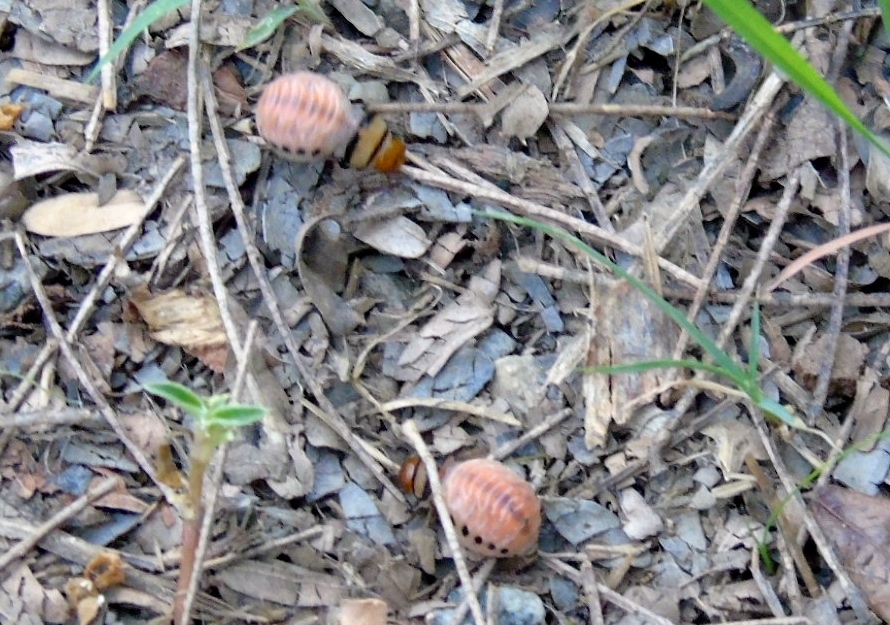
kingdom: Animalia
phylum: Arthropoda
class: Insecta
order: Coleoptera
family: Chrysomelidae
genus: Leptinotarsa
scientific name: Leptinotarsa
